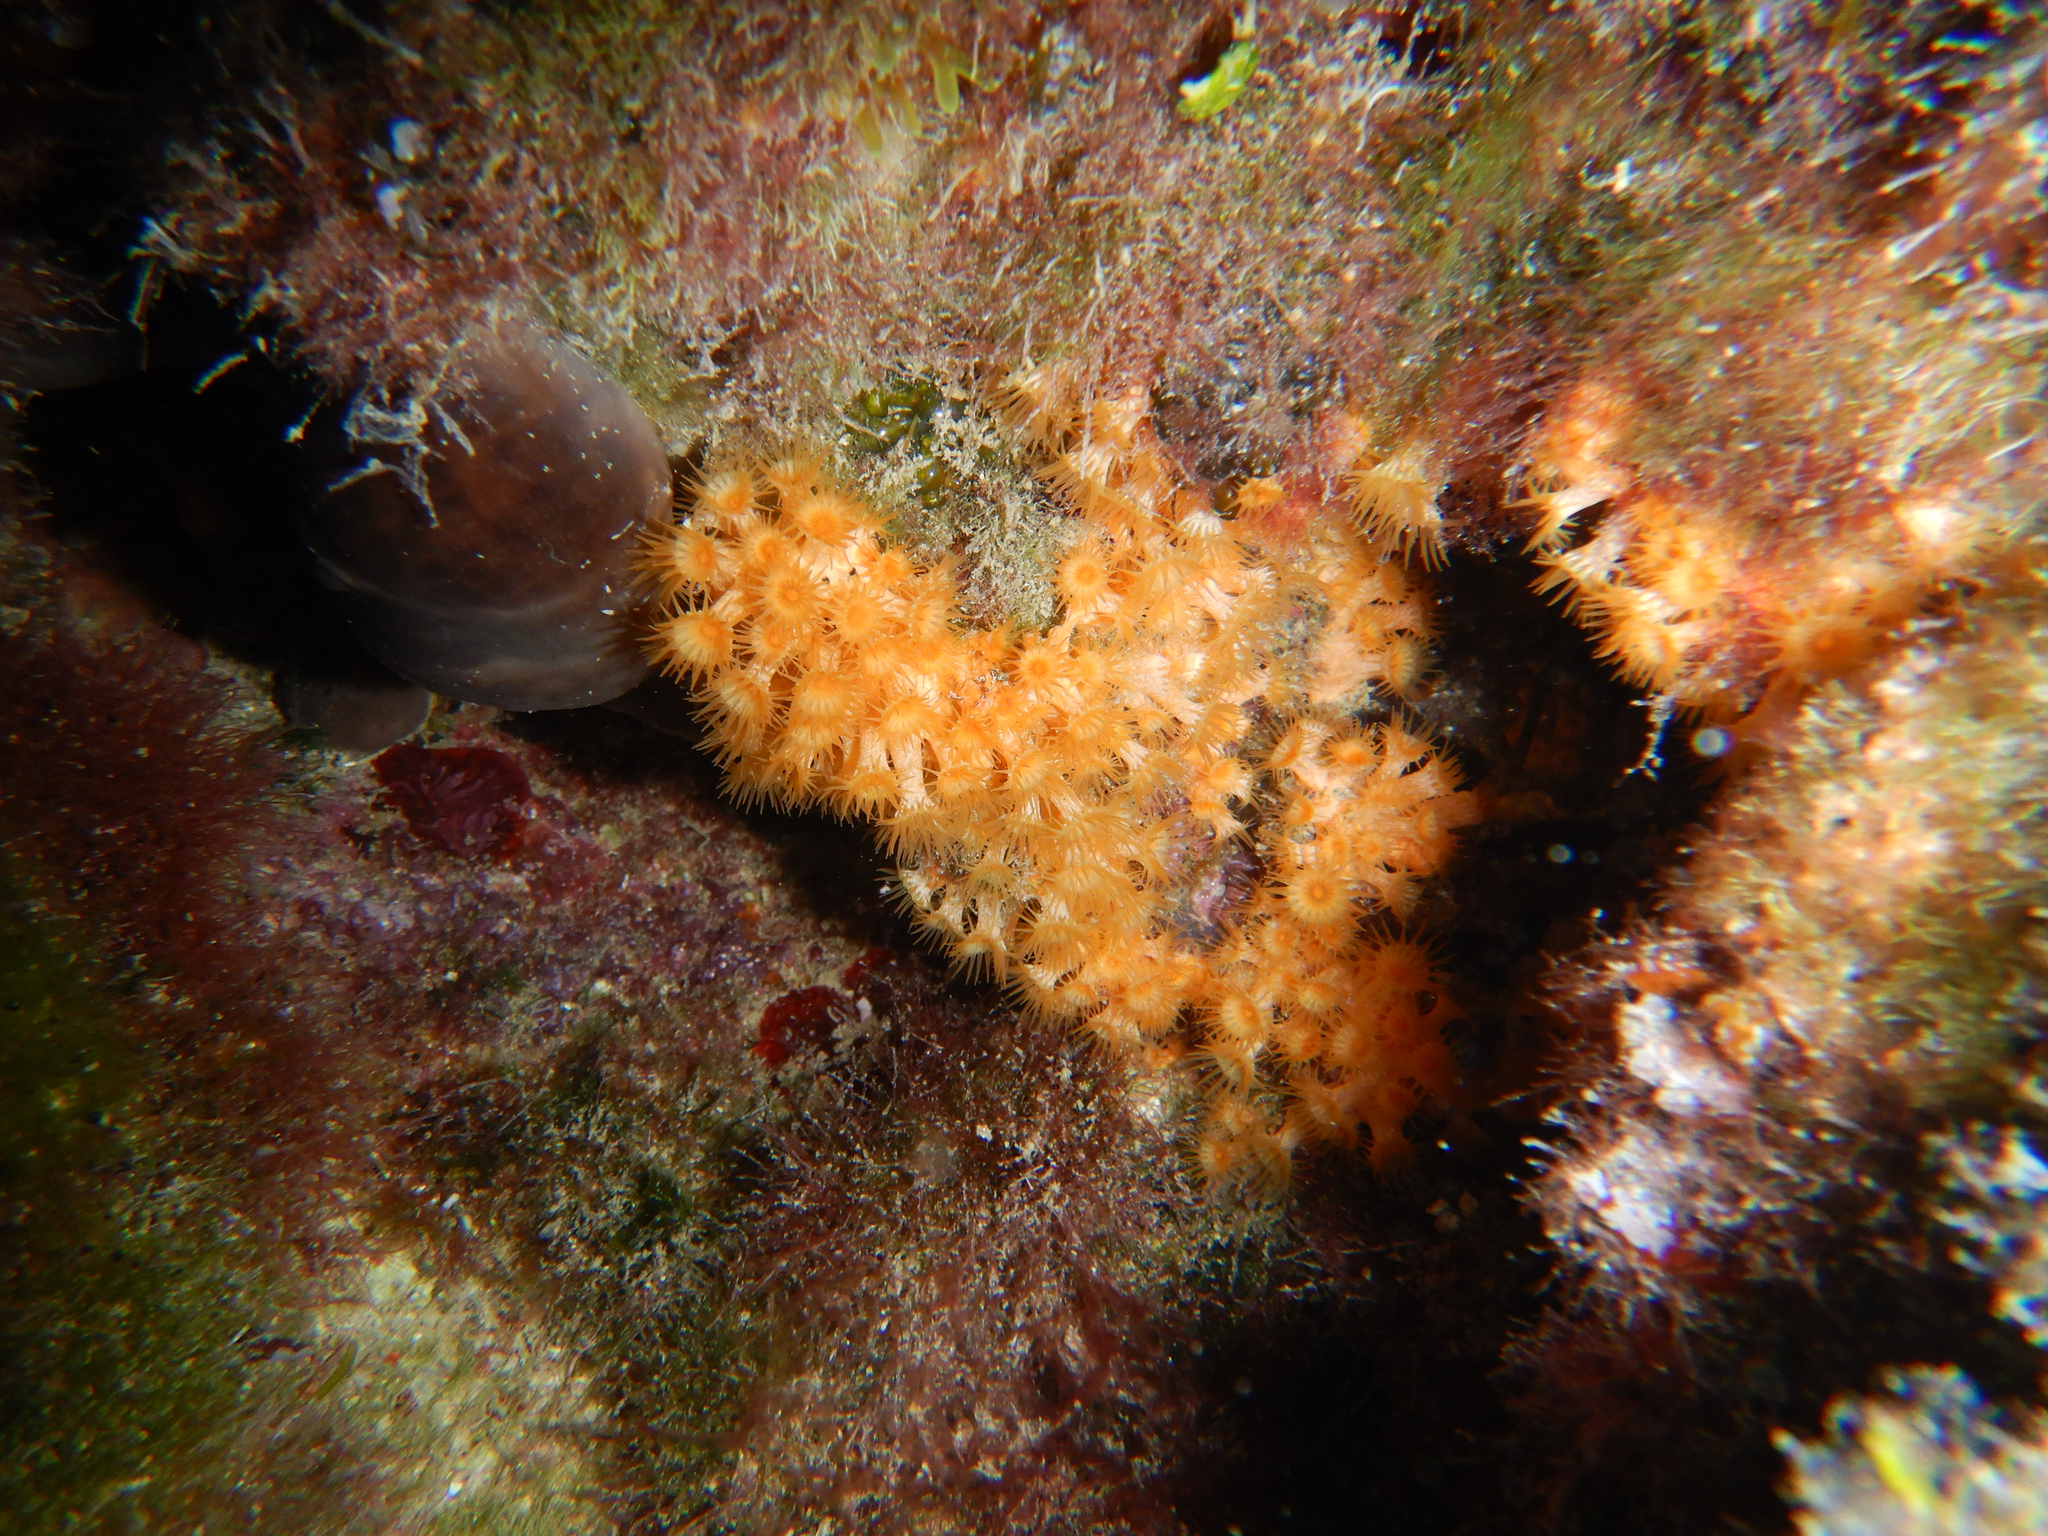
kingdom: Animalia
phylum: Cnidaria
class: Anthozoa
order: Zoantharia
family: Parazoanthidae
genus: Parazoanthus
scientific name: Parazoanthus axinellae
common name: Yellow cluster anemone
